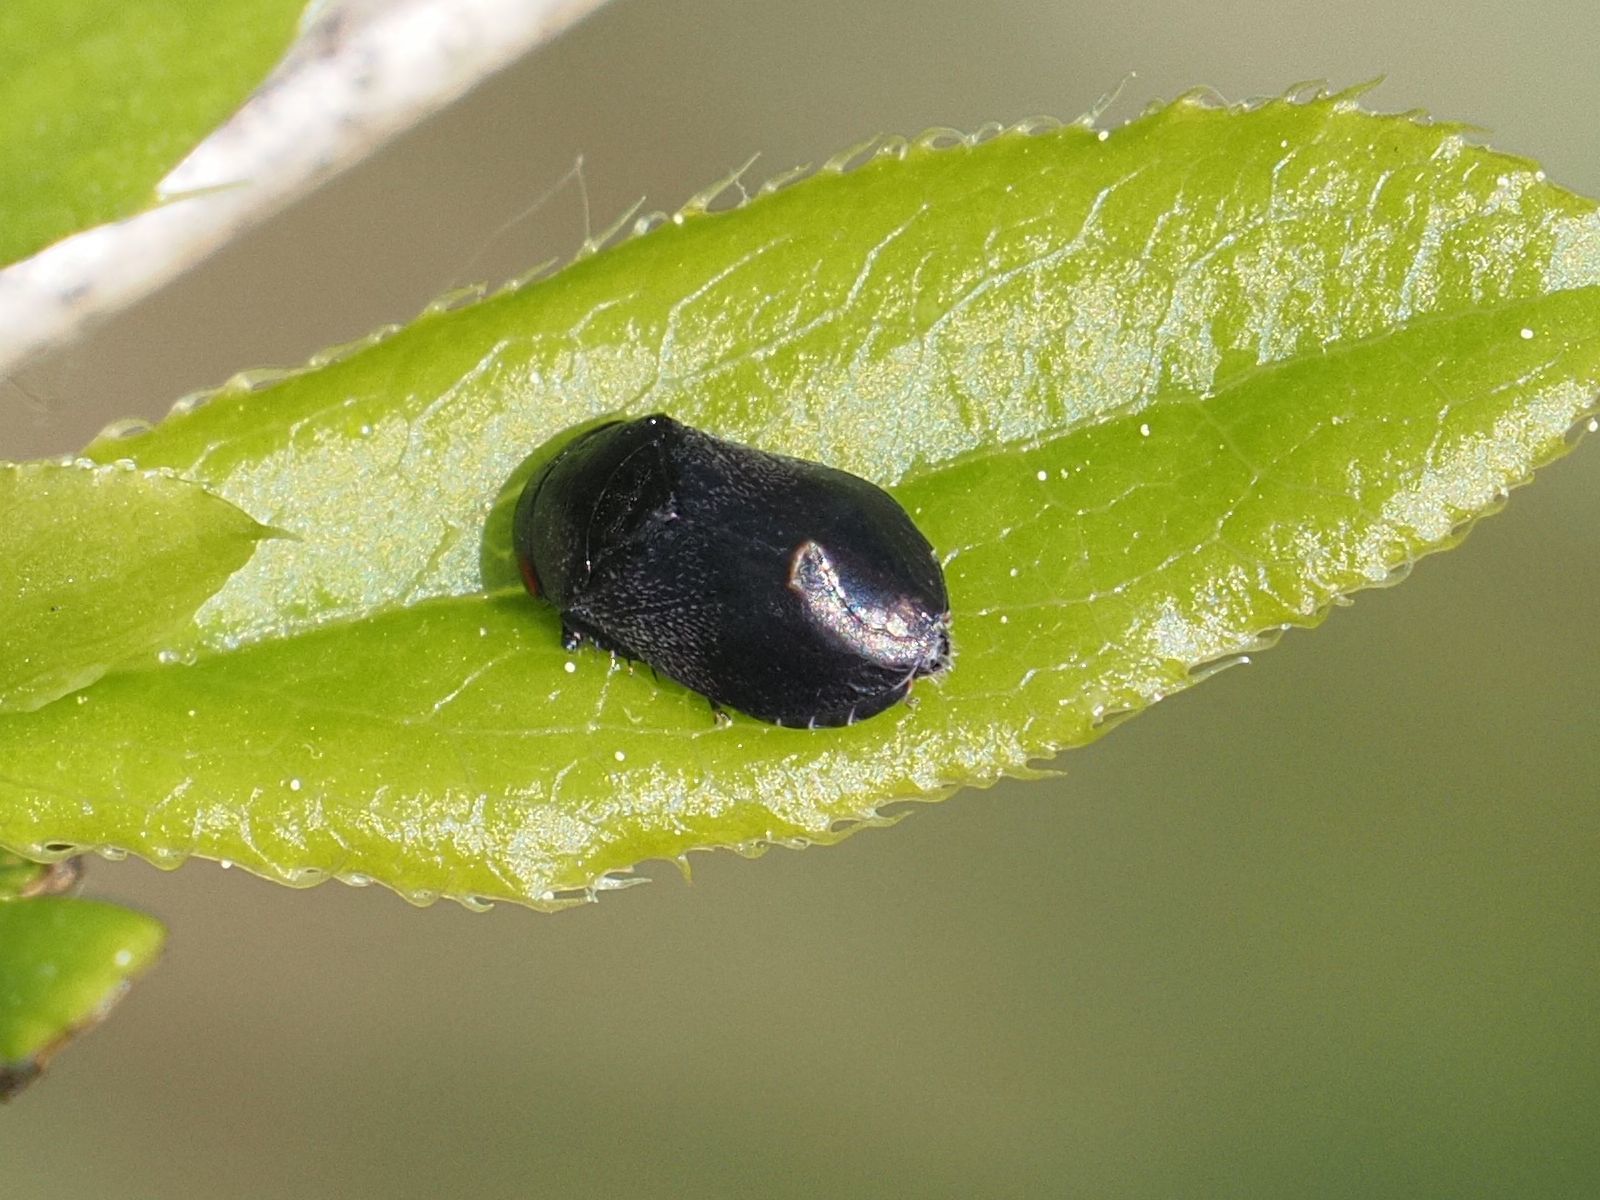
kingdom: Animalia
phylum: Arthropoda
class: Insecta
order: Hemiptera
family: Cicadellidae
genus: Penthimia
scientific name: Penthimia nigra
